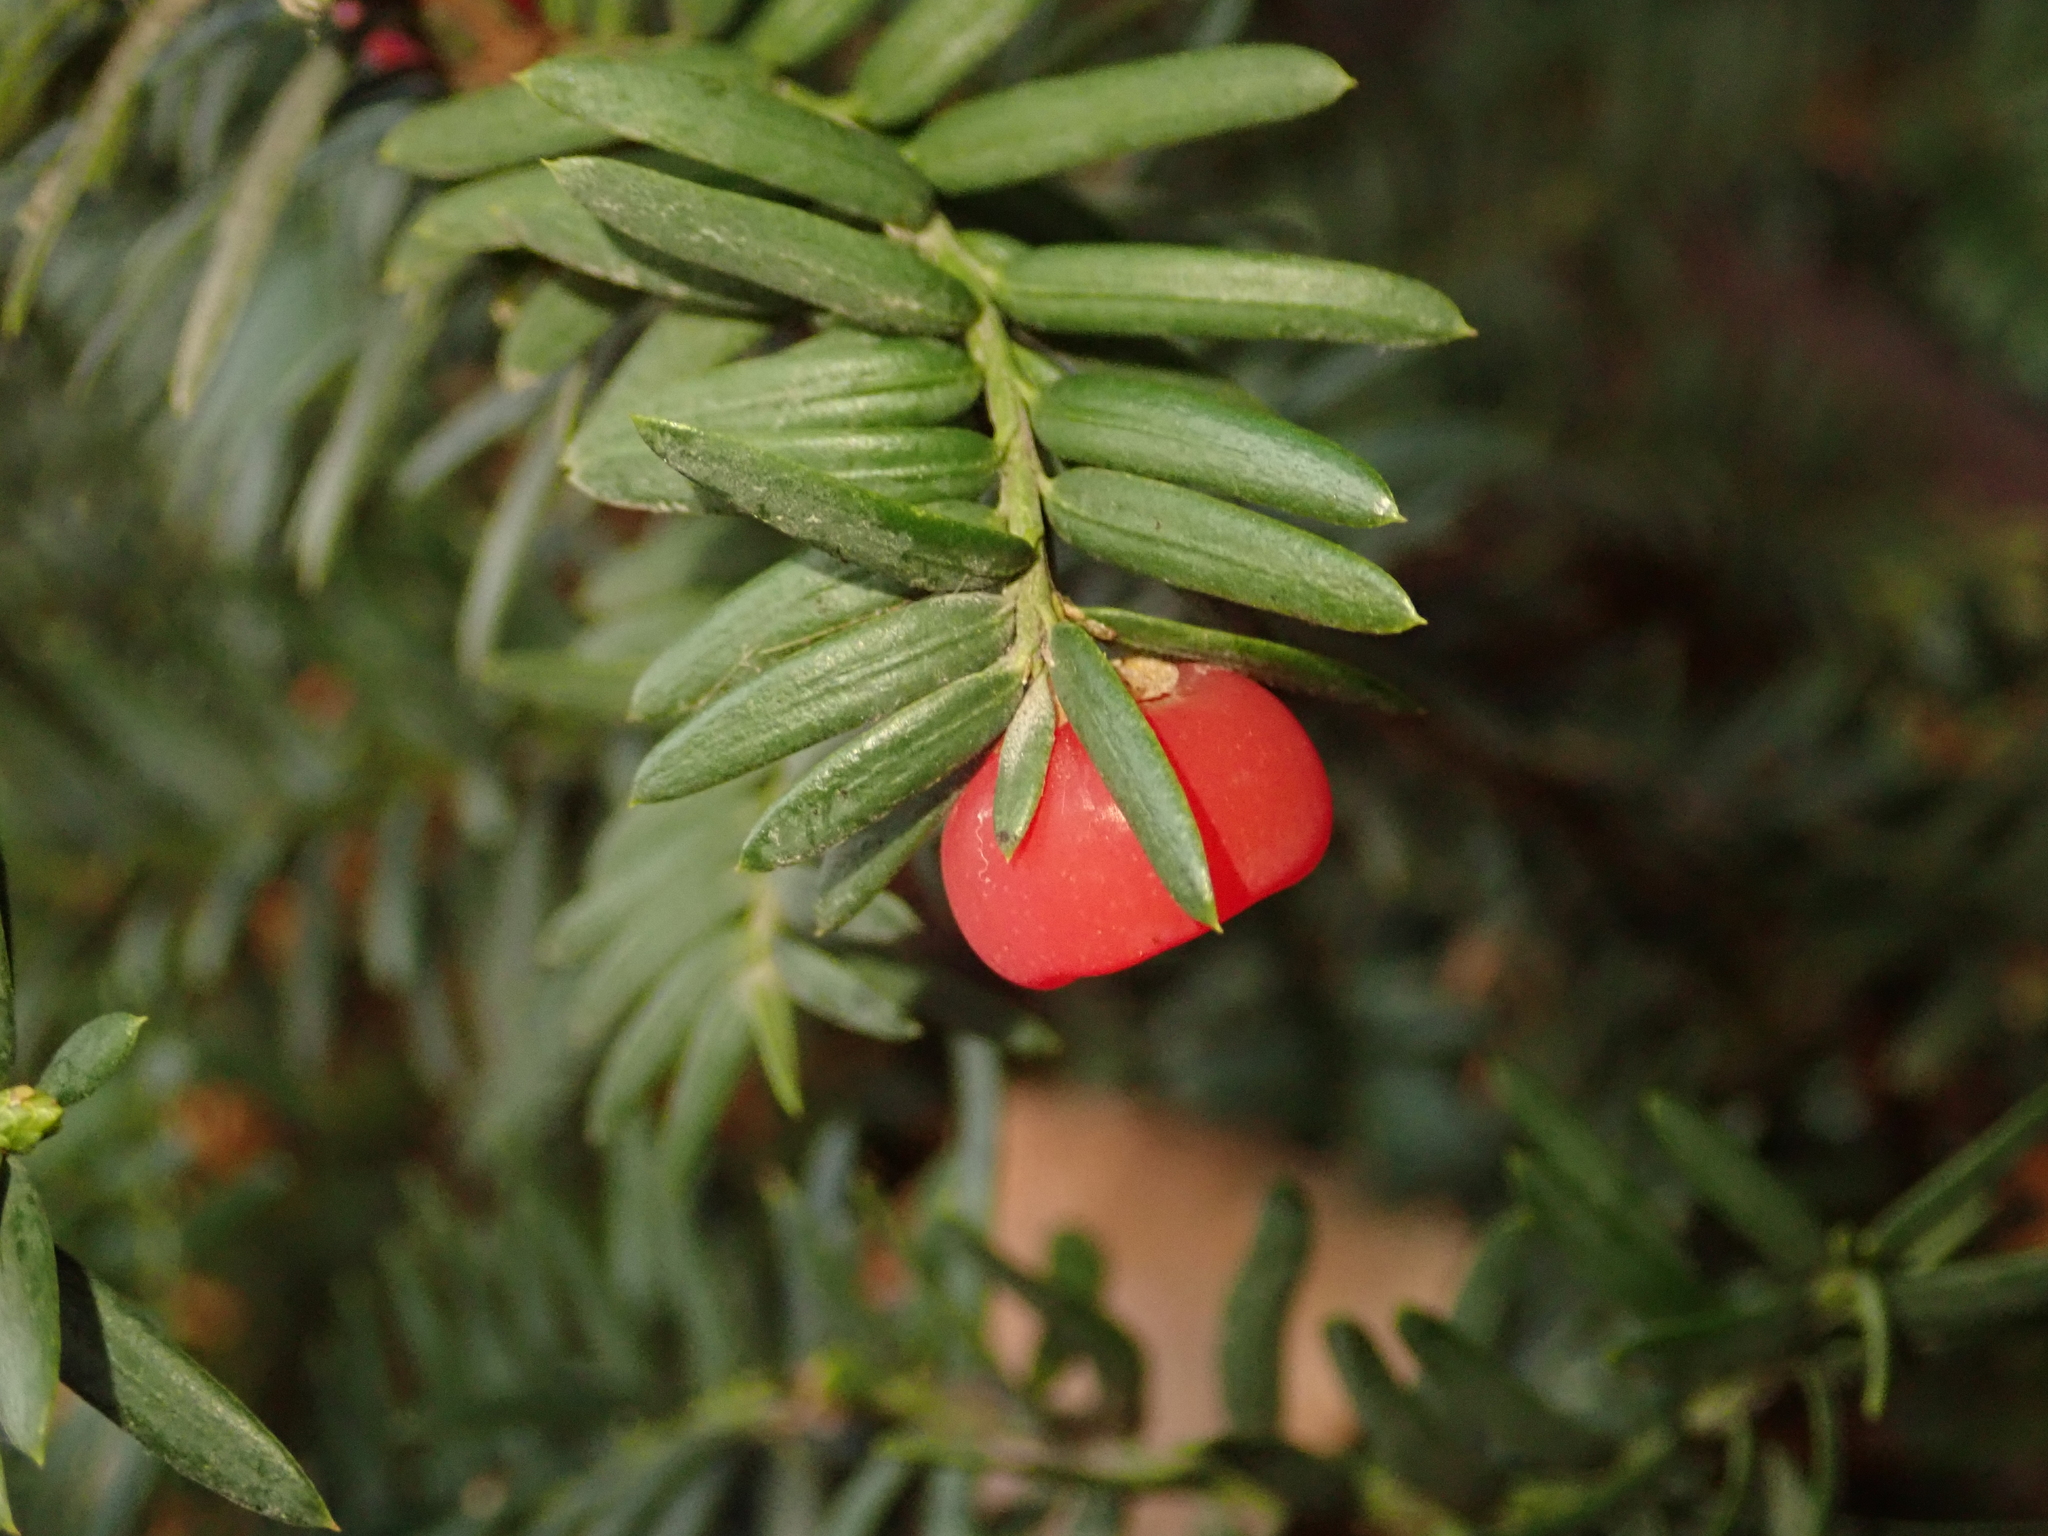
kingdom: Plantae
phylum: Tracheophyta
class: Pinopsida
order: Pinales
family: Taxaceae
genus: Taxus
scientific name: Taxus baccata
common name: Yew
